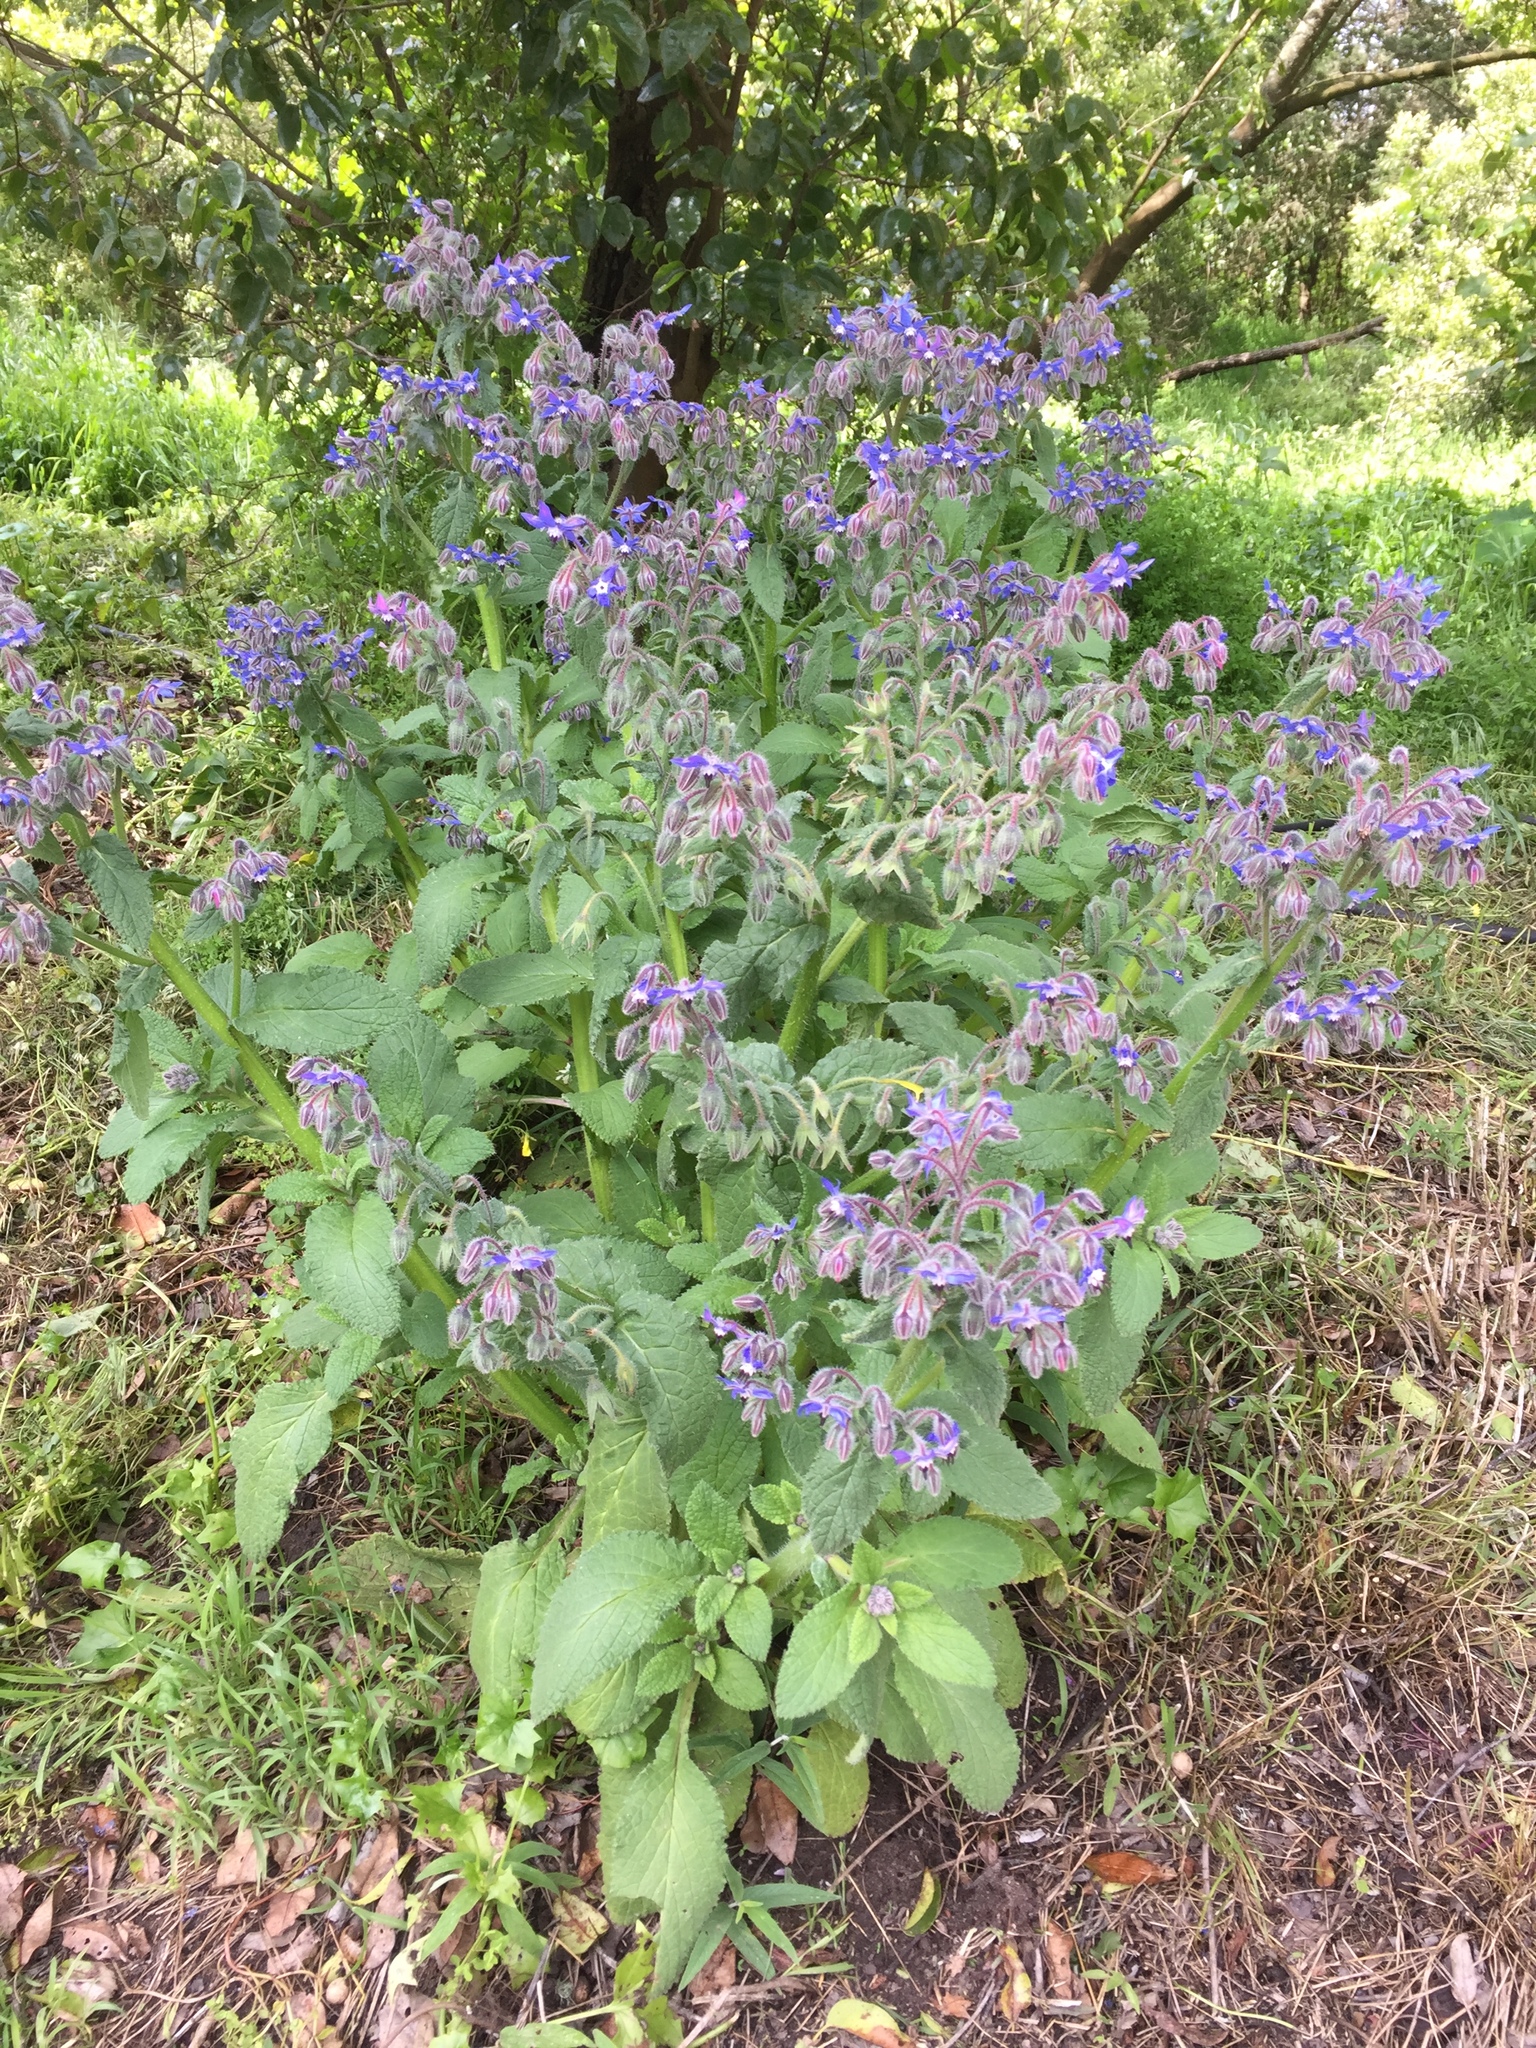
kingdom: Plantae
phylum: Tracheophyta
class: Magnoliopsida
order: Boraginales
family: Boraginaceae
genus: Borago
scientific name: Borago officinalis
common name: Borage
